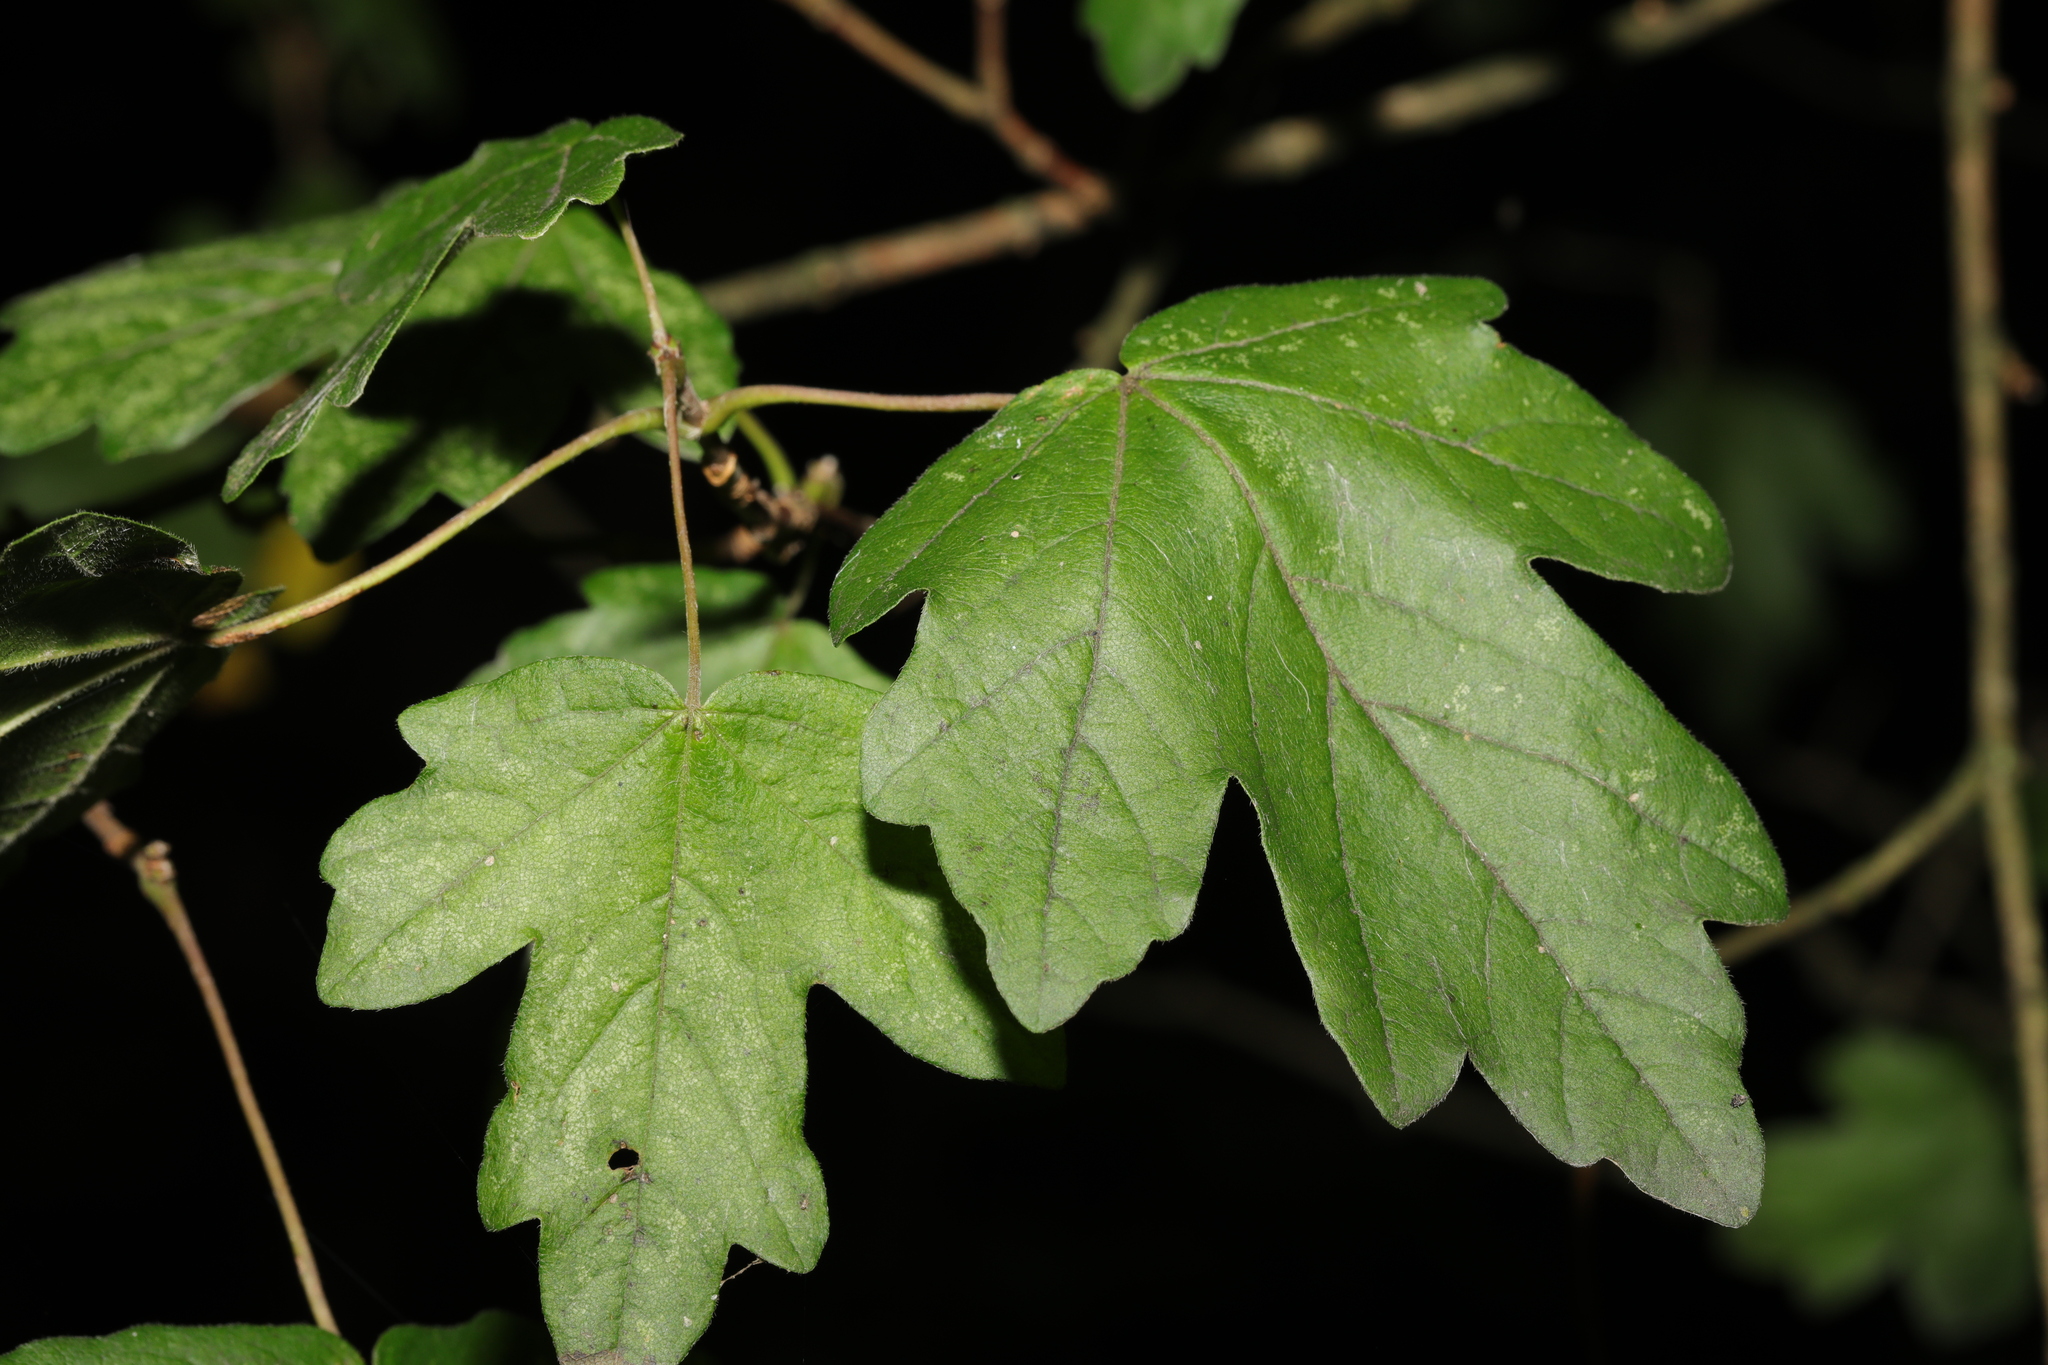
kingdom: Plantae
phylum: Tracheophyta
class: Magnoliopsida
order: Sapindales
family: Sapindaceae
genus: Acer
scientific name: Acer campestre
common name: Field maple
